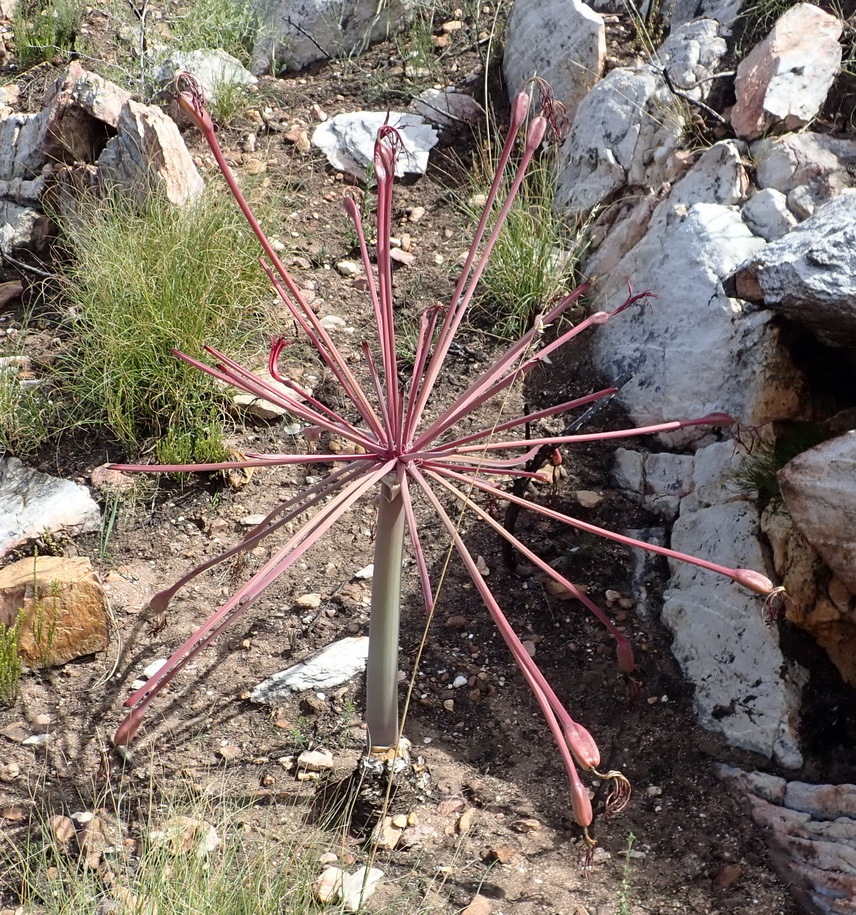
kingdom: Plantae
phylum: Tracheophyta
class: Liliopsida
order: Asparagales
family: Amaryllidaceae
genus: Brunsvigia
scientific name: Brunsvigia josephinae
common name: Josephine's-lily
